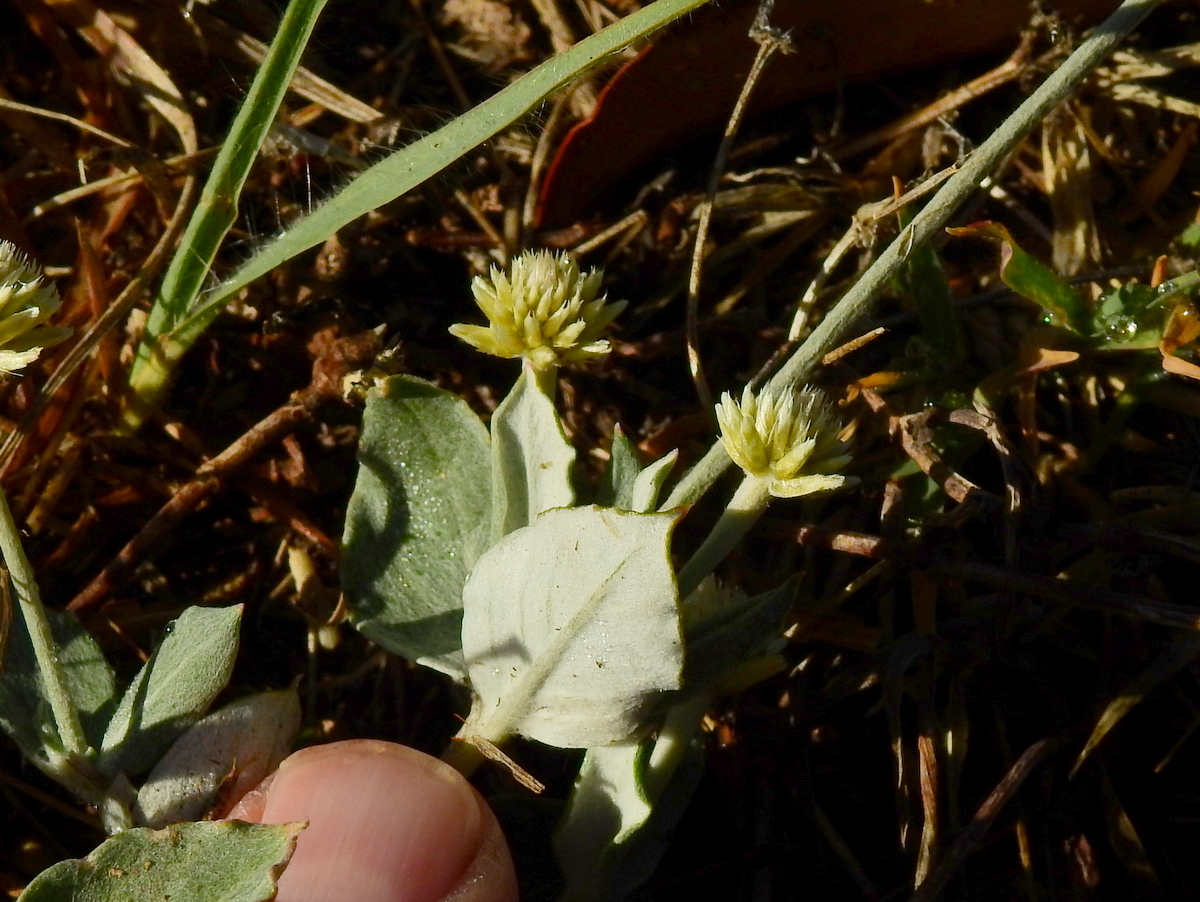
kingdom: Plantae
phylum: Tracheophyta
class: Magnoliopsida
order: Caryophyllales
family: Amaranthaceae
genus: Pfaffia
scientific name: Pfaffia gnaphalioides
